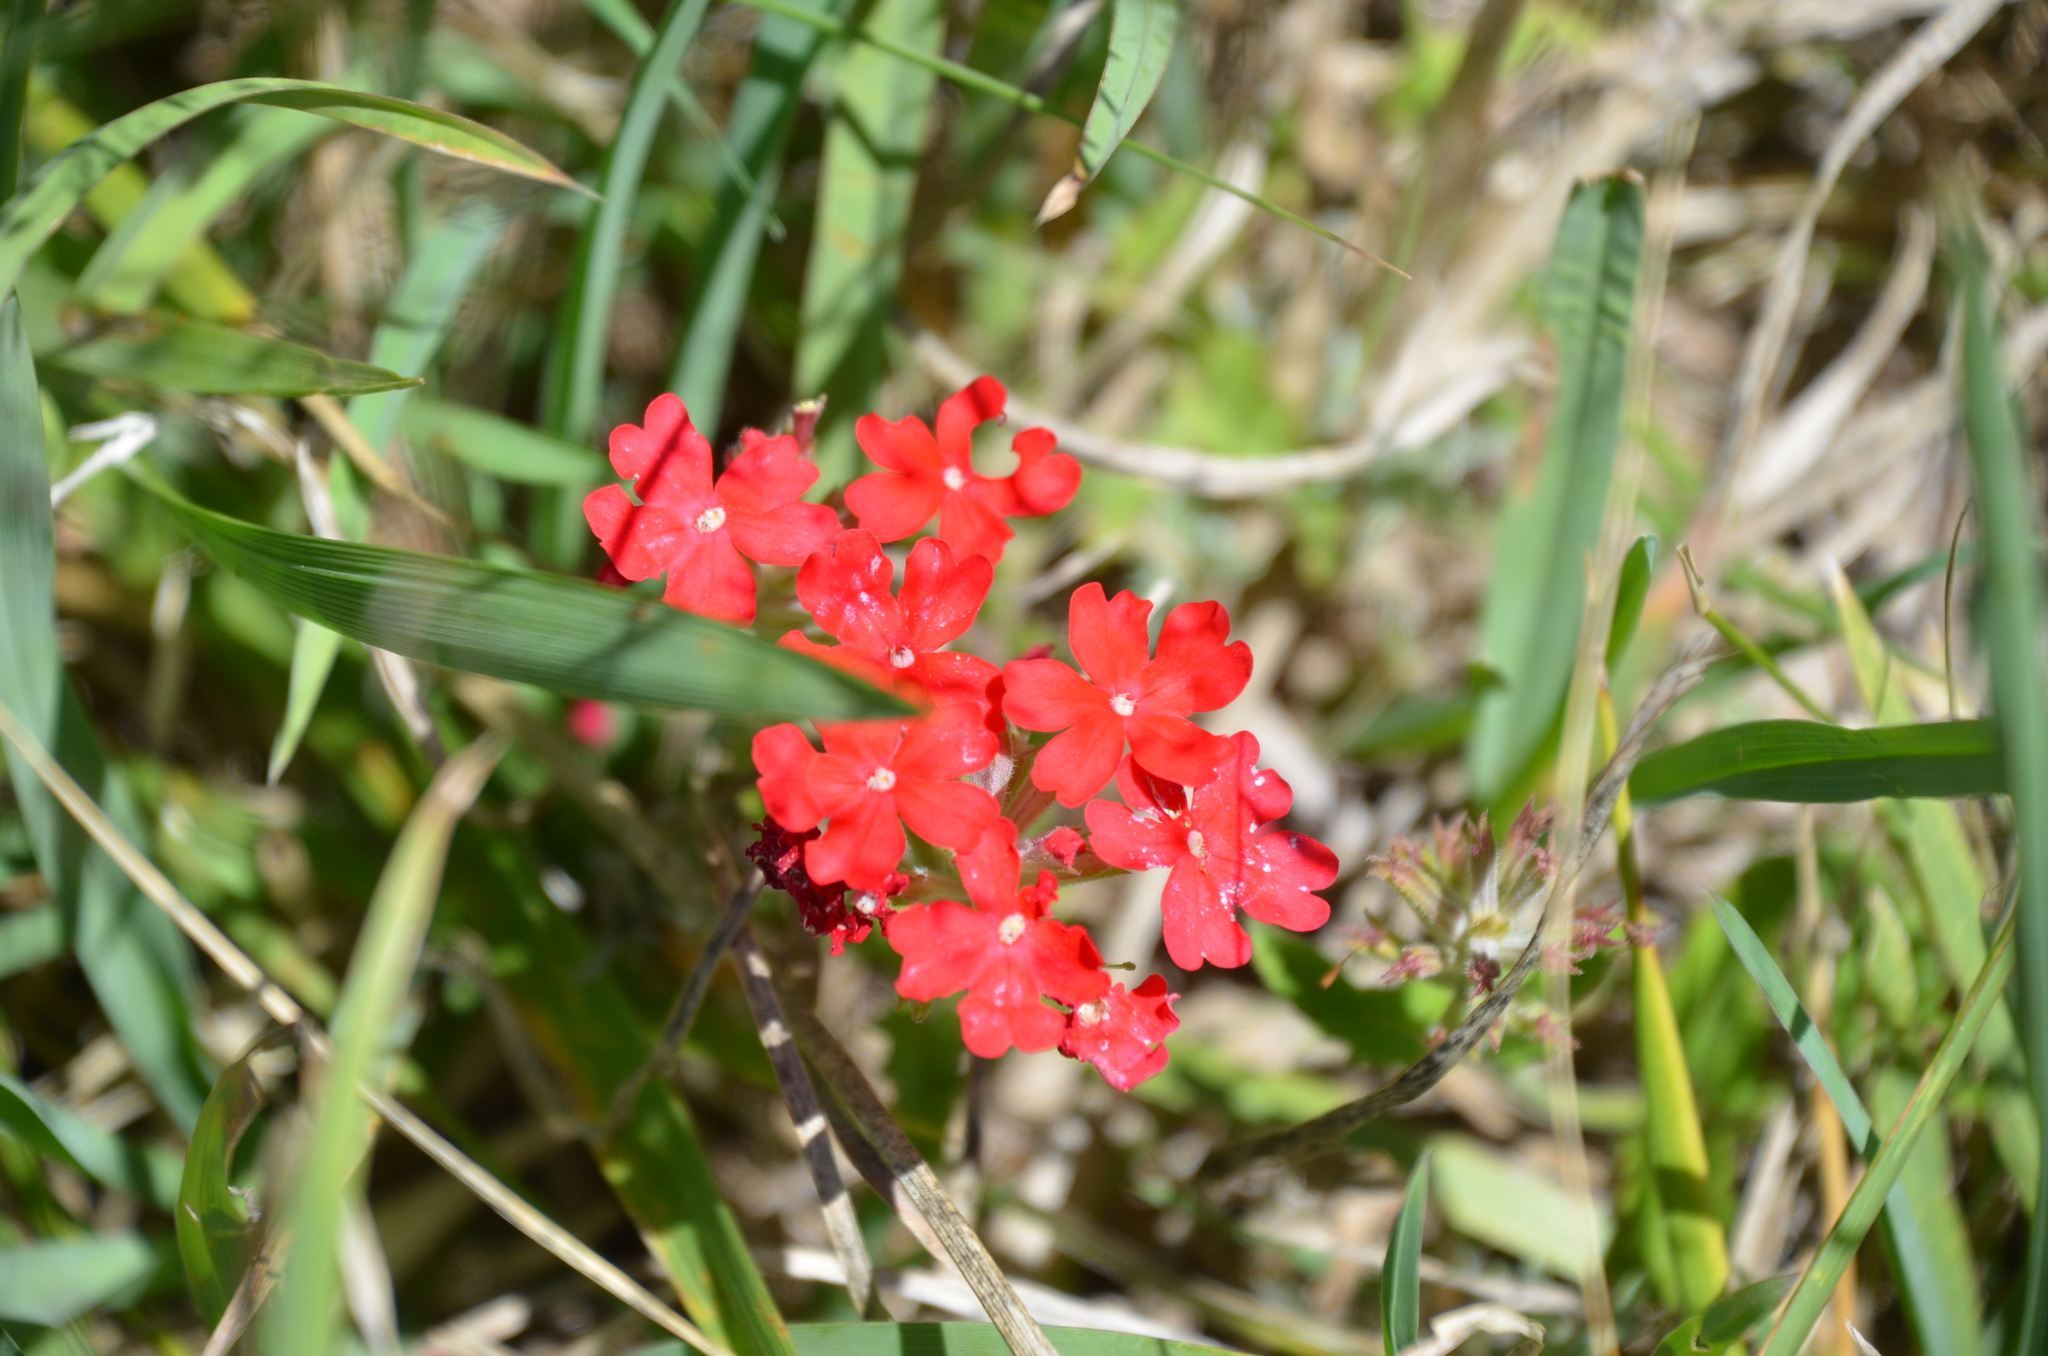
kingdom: Plantae
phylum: Tracheophyta
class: Magnoliopsida
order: Lamiales
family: Verbenaceae
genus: Verbena
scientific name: Verbena peruviana
